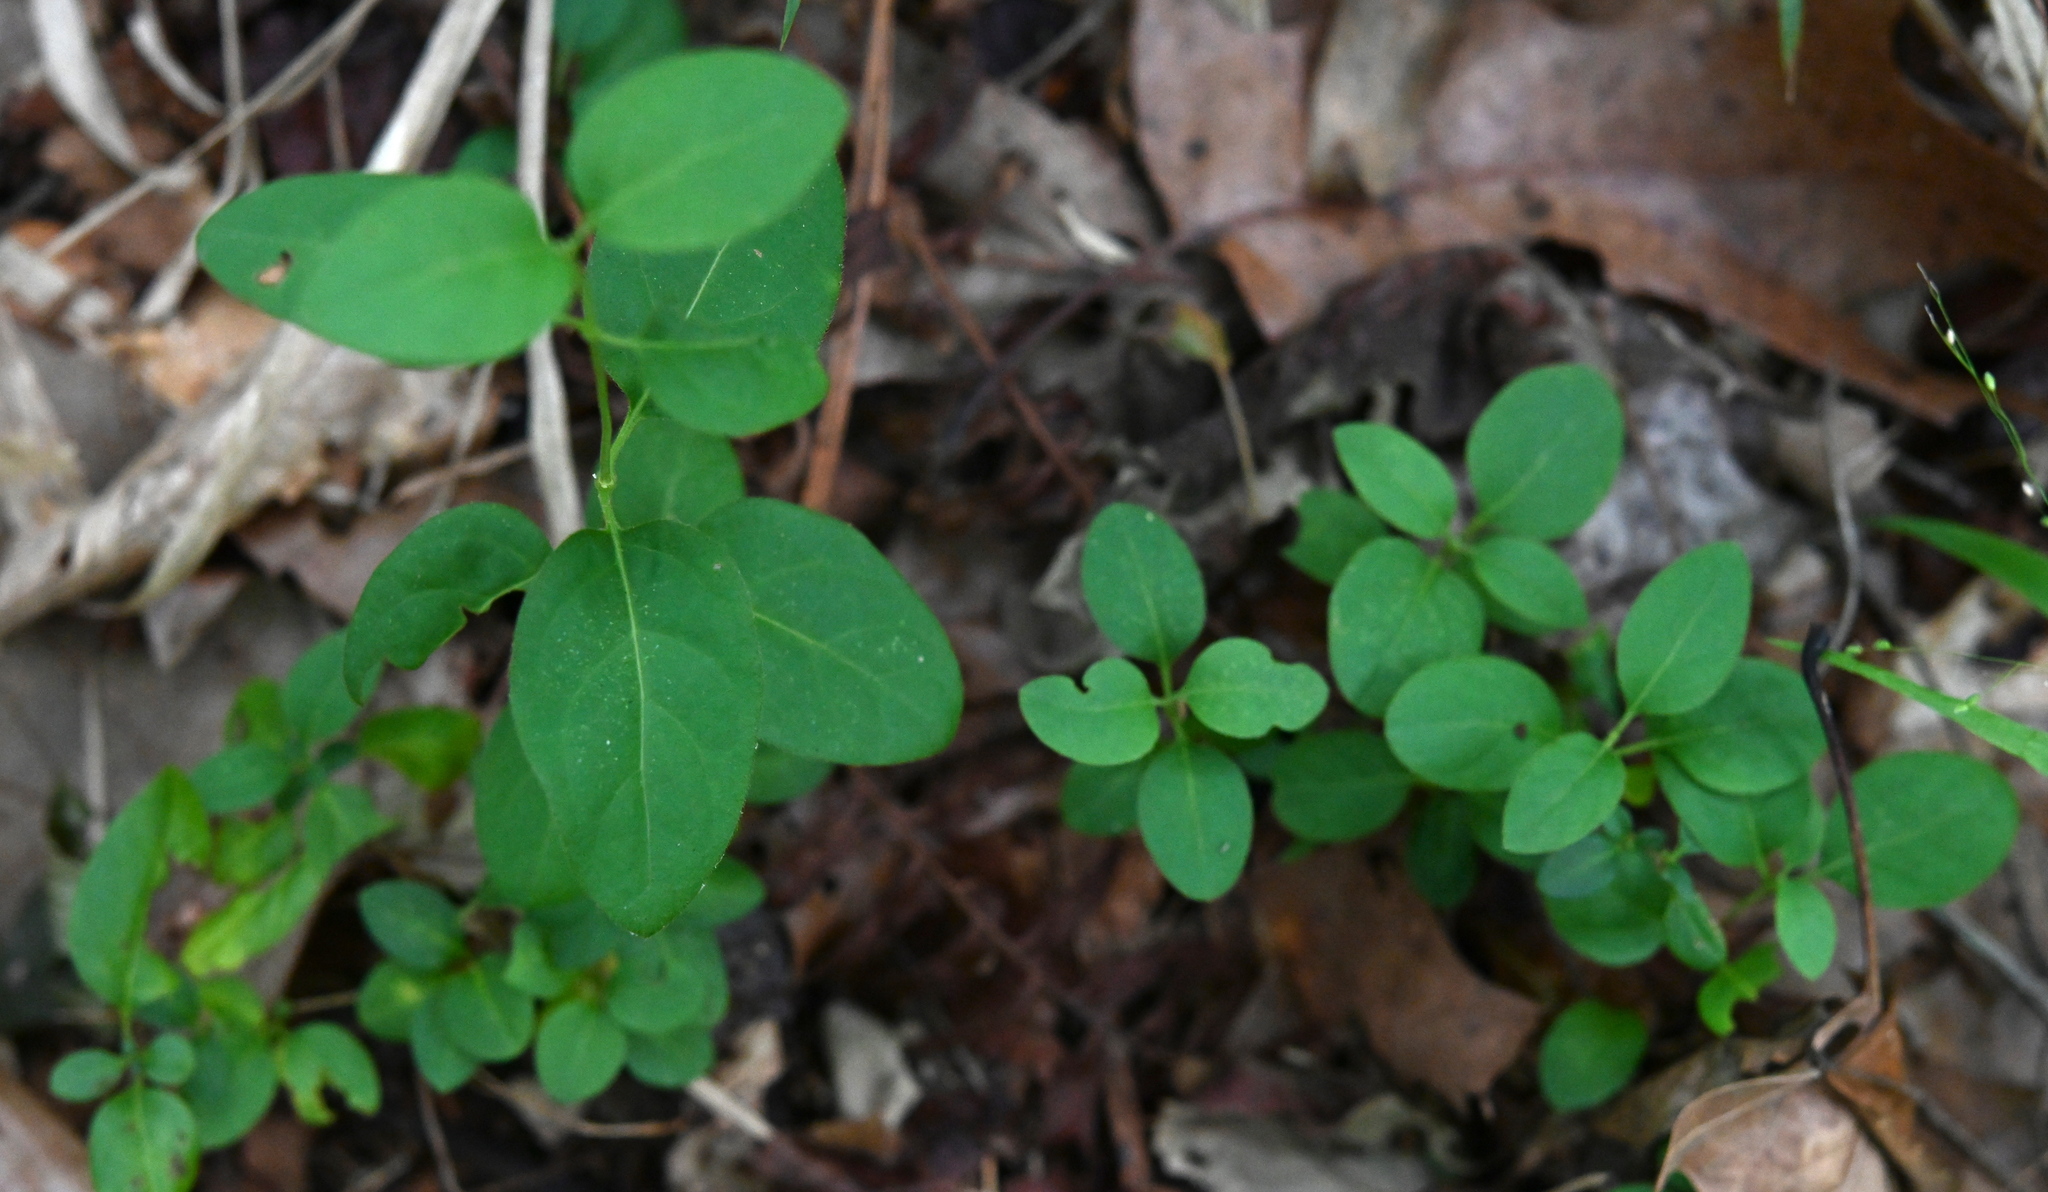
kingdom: Plantae
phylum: Tracheophyta
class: Magnoliopsida
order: Dipsacales
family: Caprifoliaceae
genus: Lonicera
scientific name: Lonicera japonica
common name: Japanese honeysuckle
